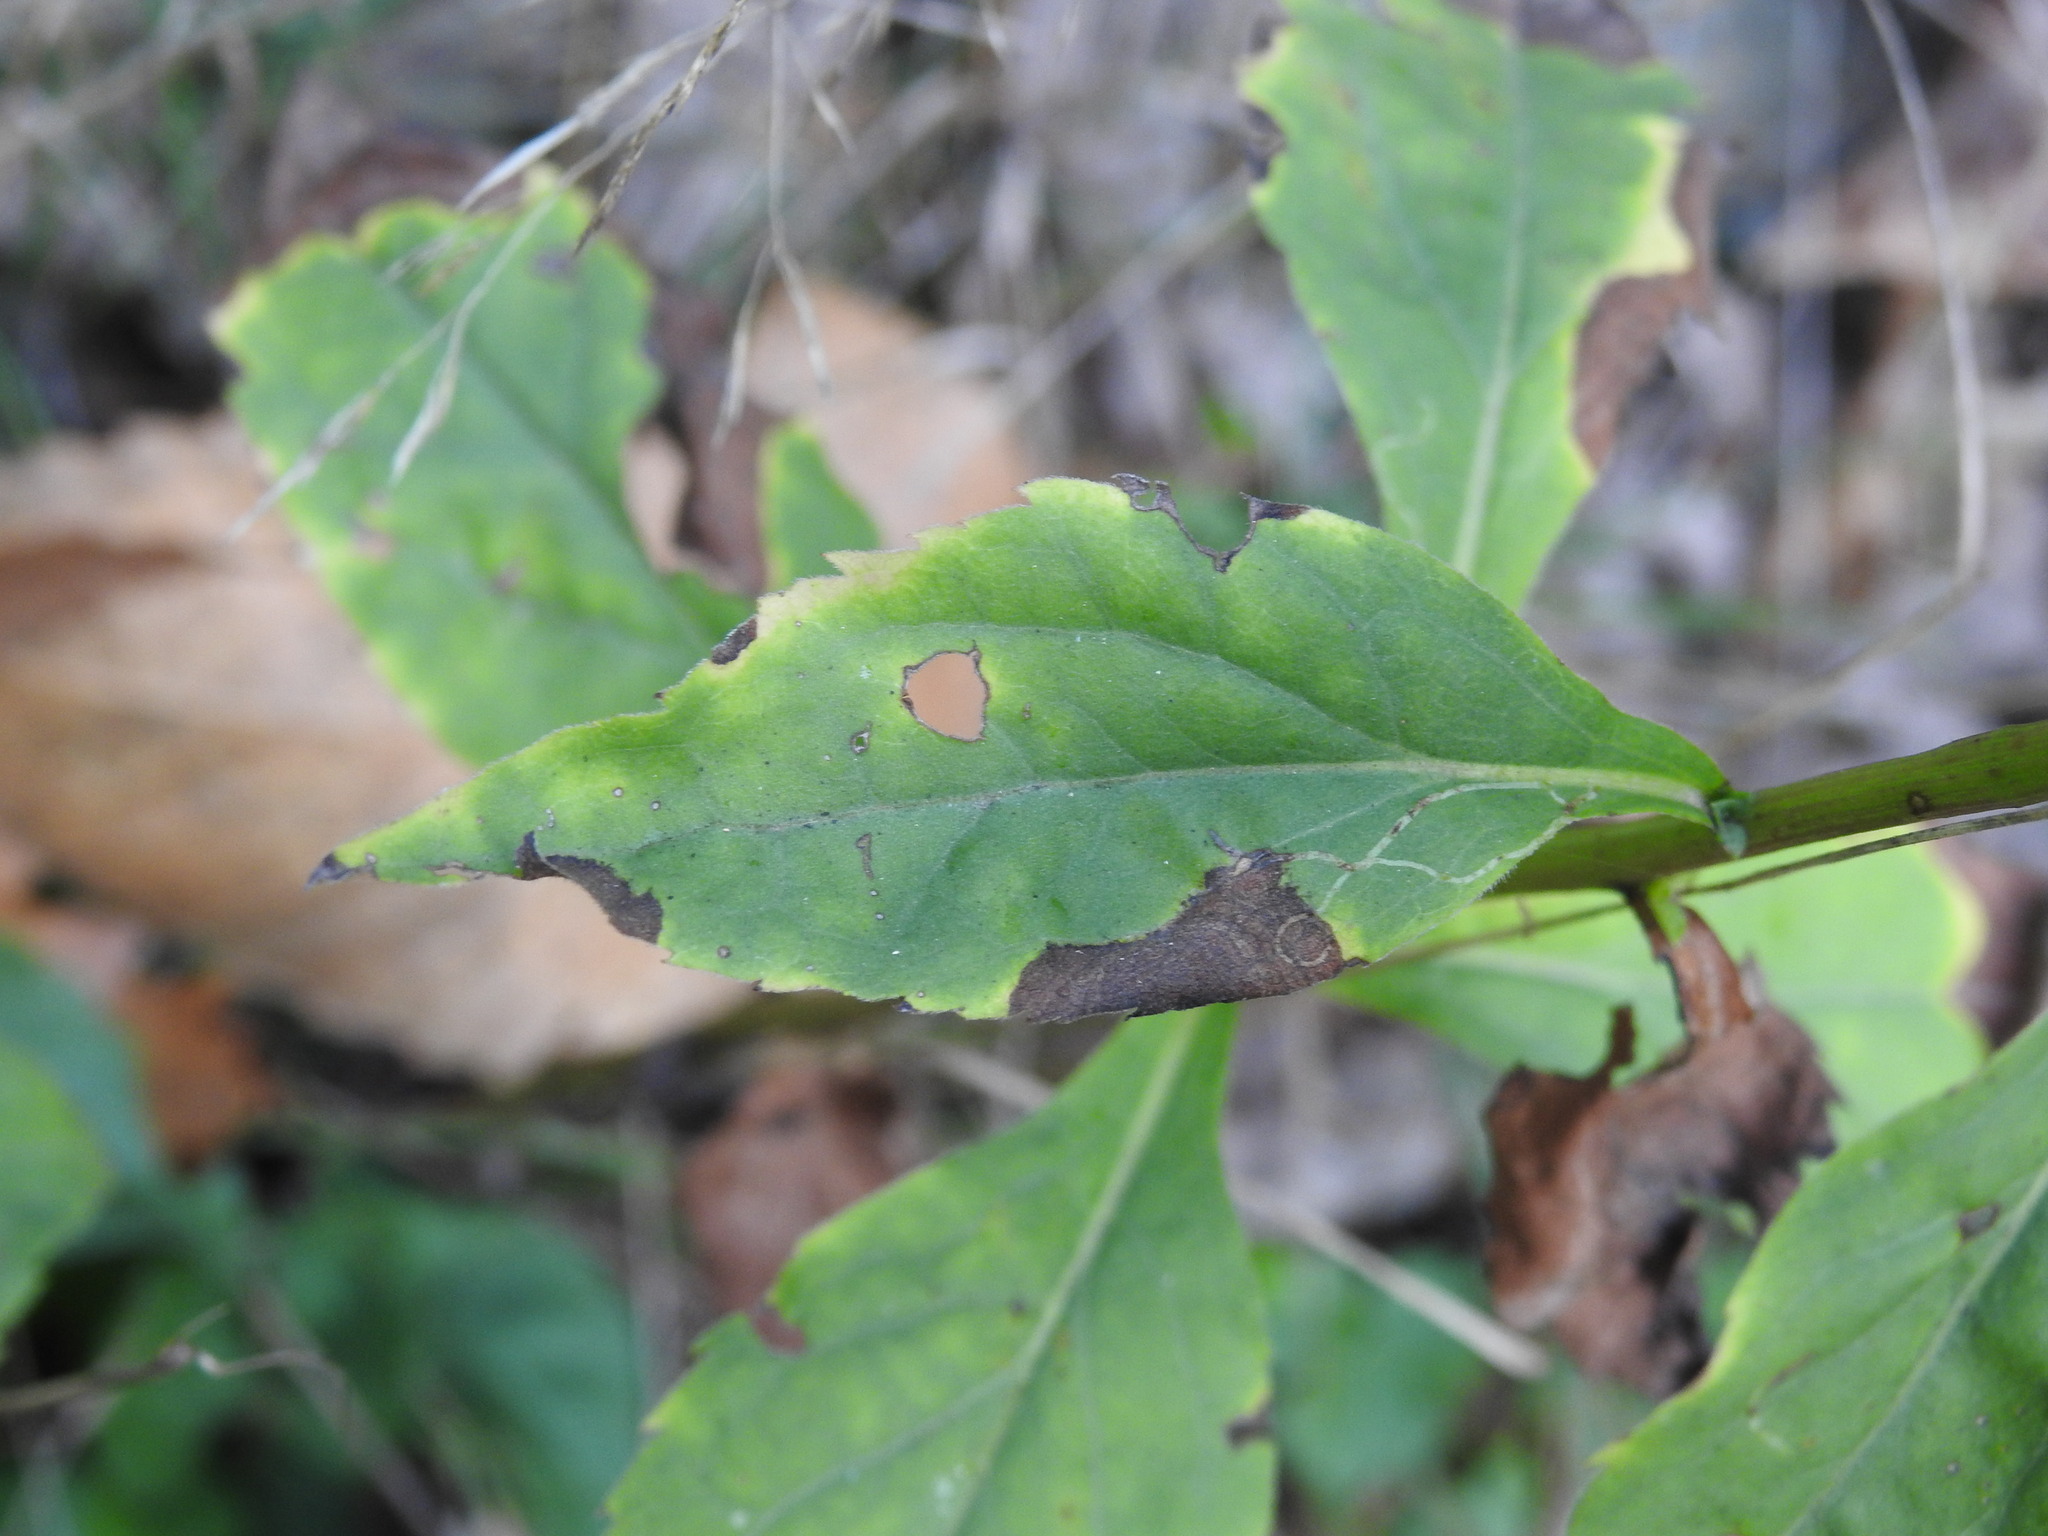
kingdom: Plantae
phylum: Tracheophyta
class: Magnoliopsida
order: Asterales
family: Asteraceae
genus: Solidago
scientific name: Solidago virgaurea
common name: Goldenrod
